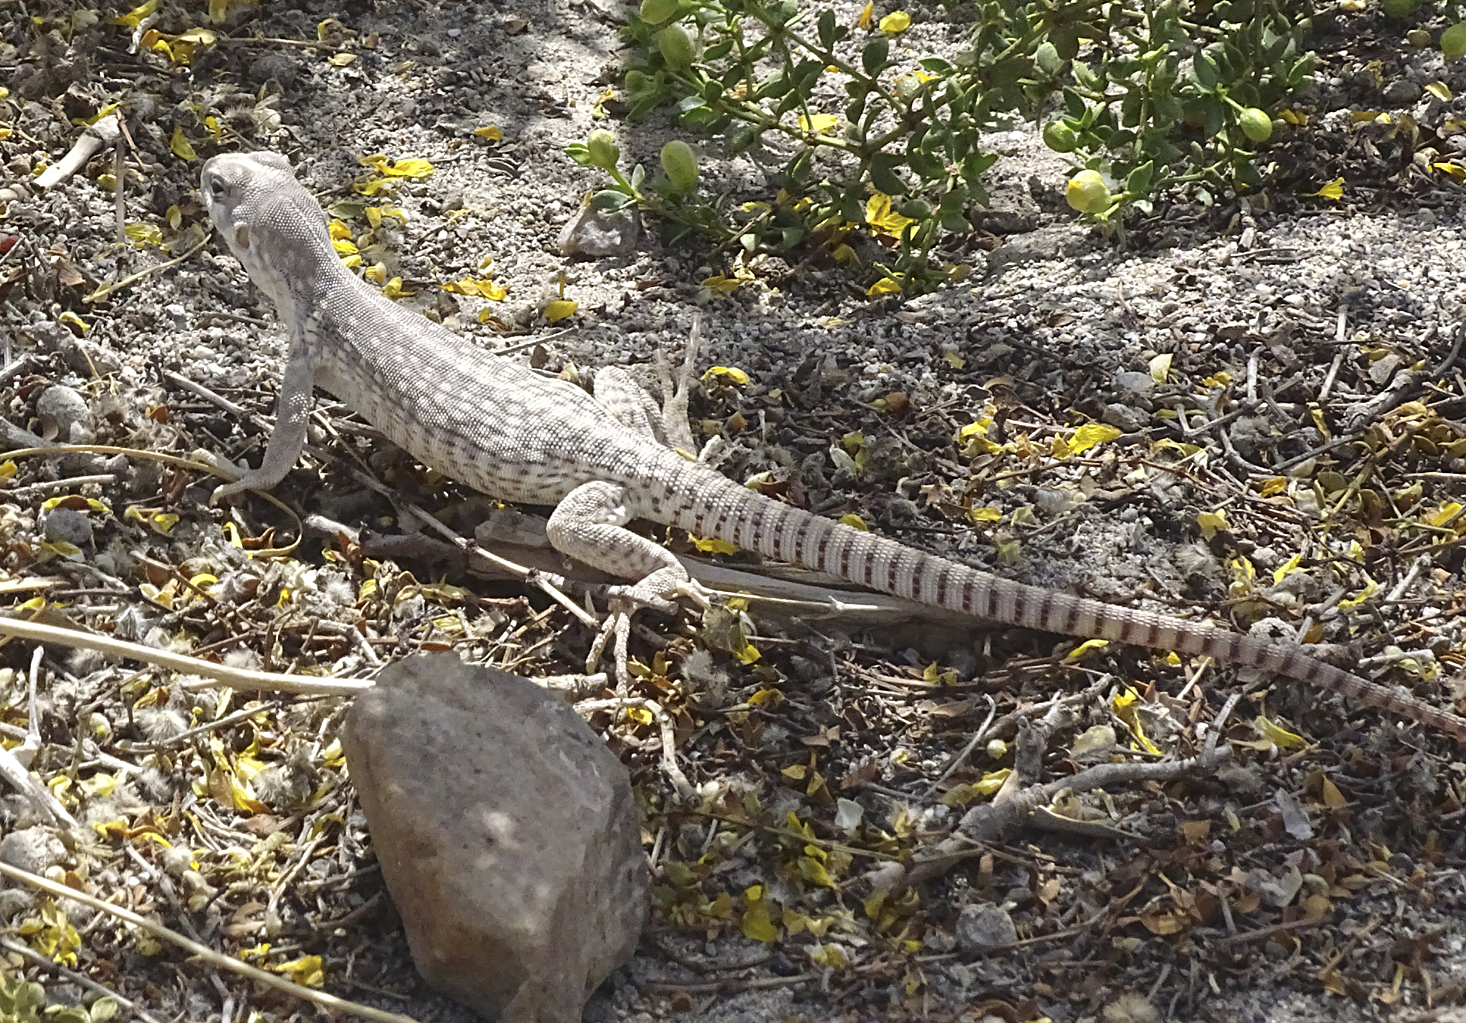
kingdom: Animalia
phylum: Chordata
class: Squamata
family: Iguanidae
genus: Dipsosaurus
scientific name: Dipsosaurus dorsalis
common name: Desert iguana
